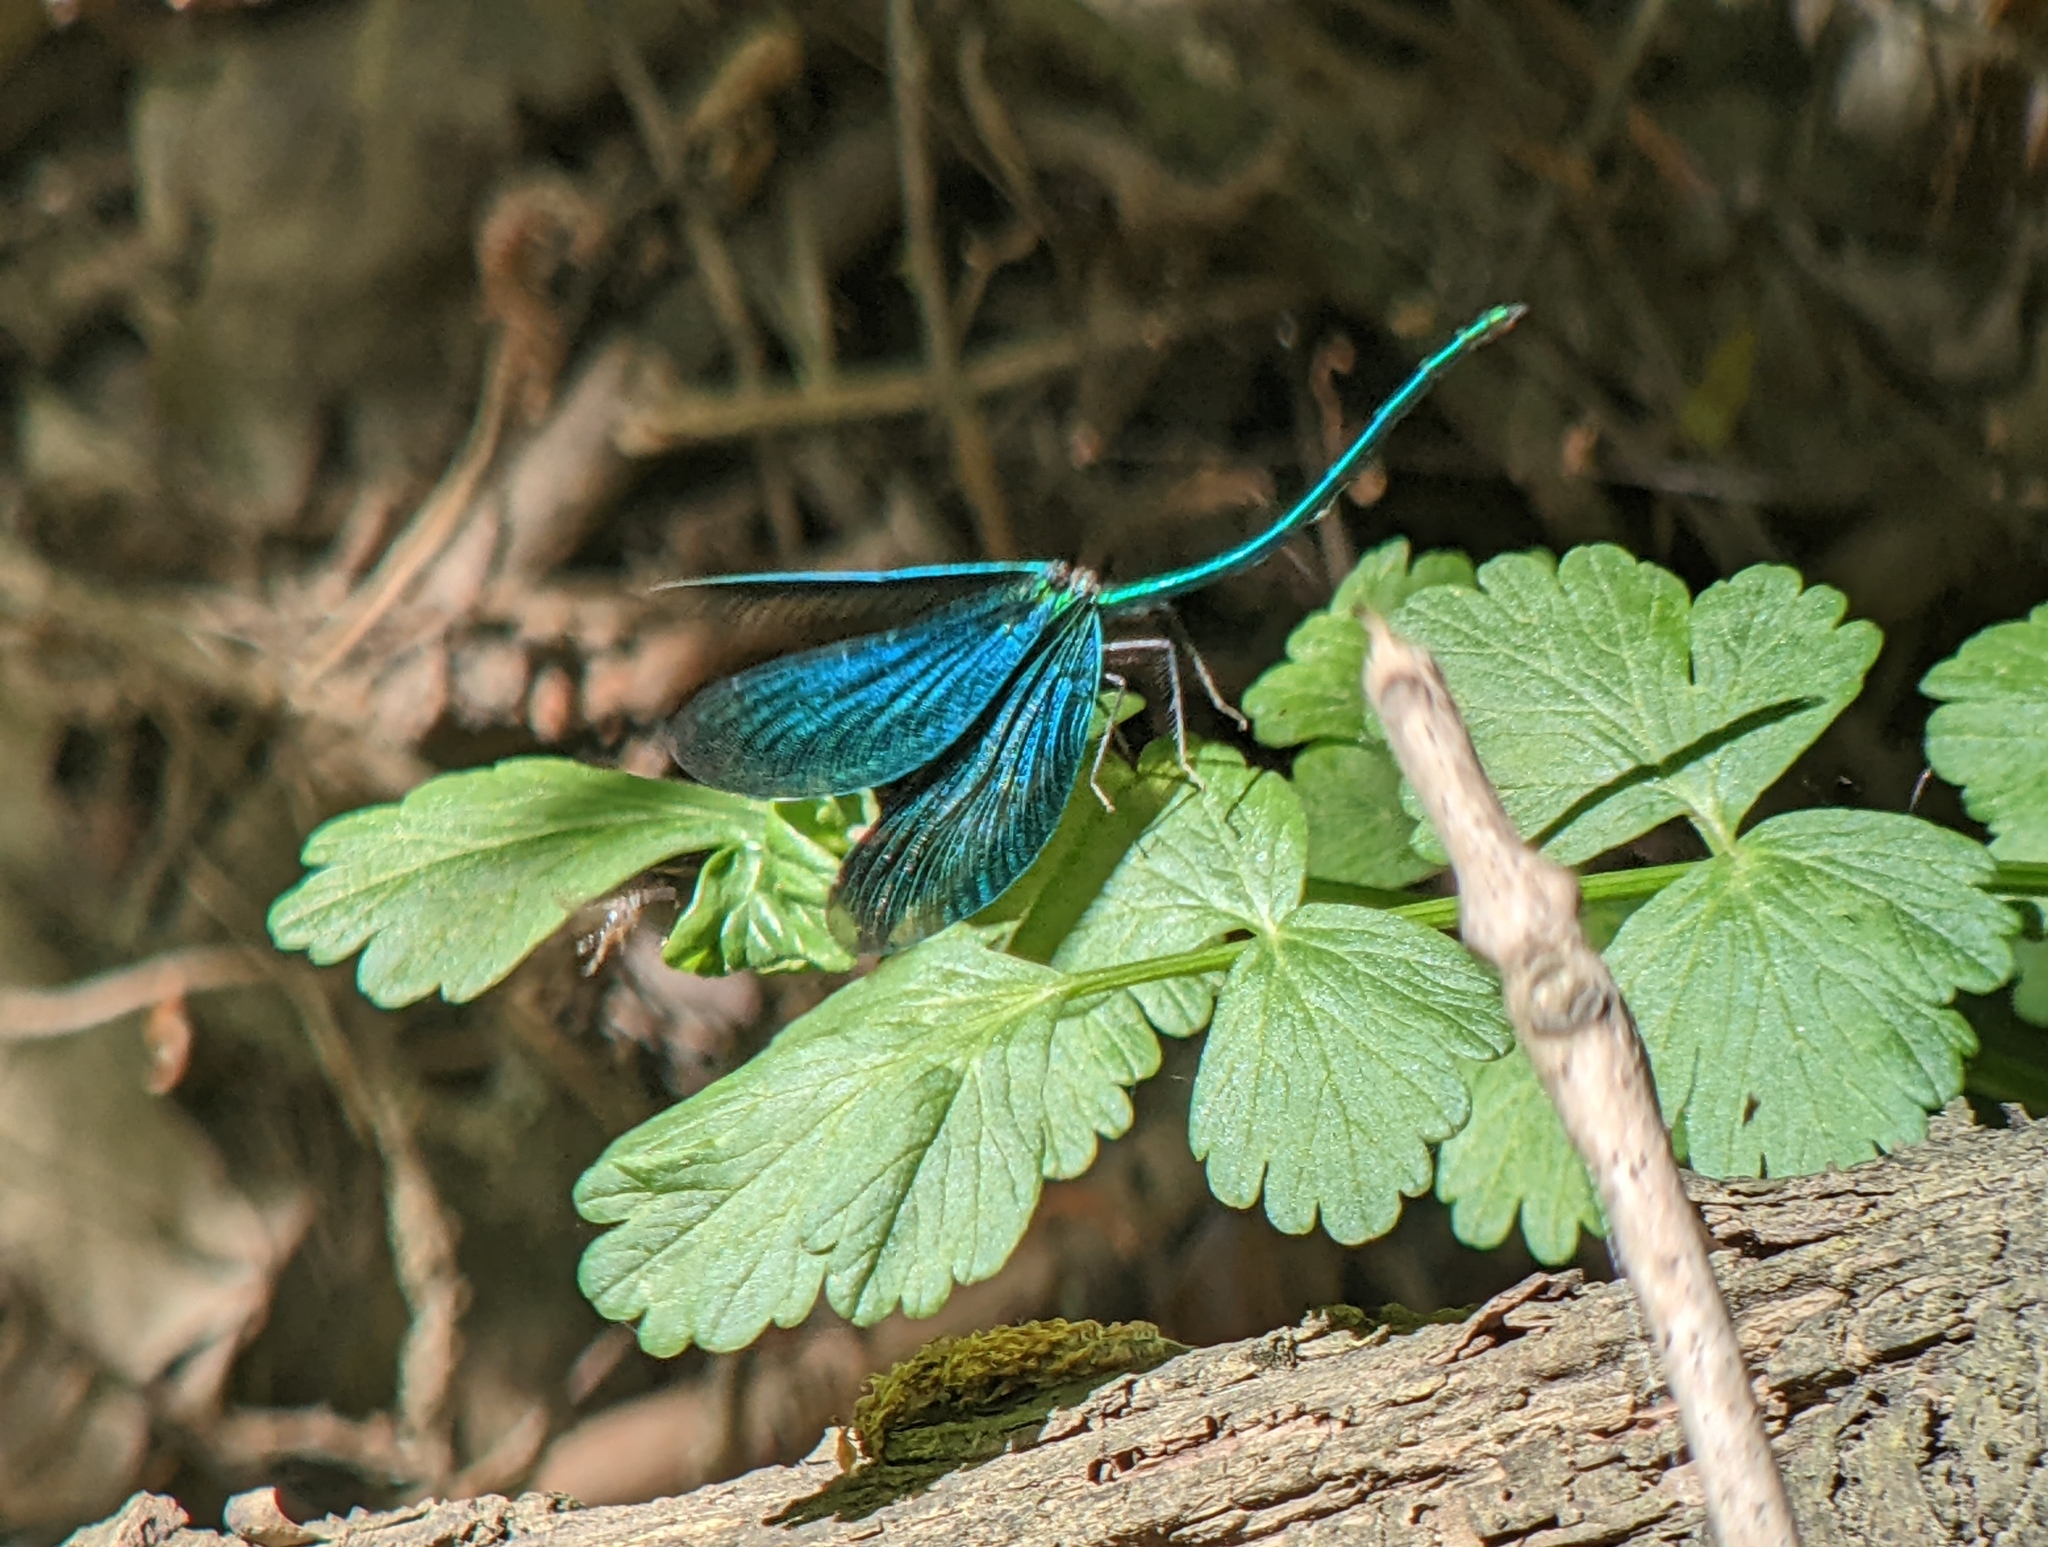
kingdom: Animalia
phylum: Arthropoda
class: Insecta
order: Odonata
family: Calopterygidae
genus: Calopteryx
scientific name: Calopteryx virgo
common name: Beautiful demoiselle
